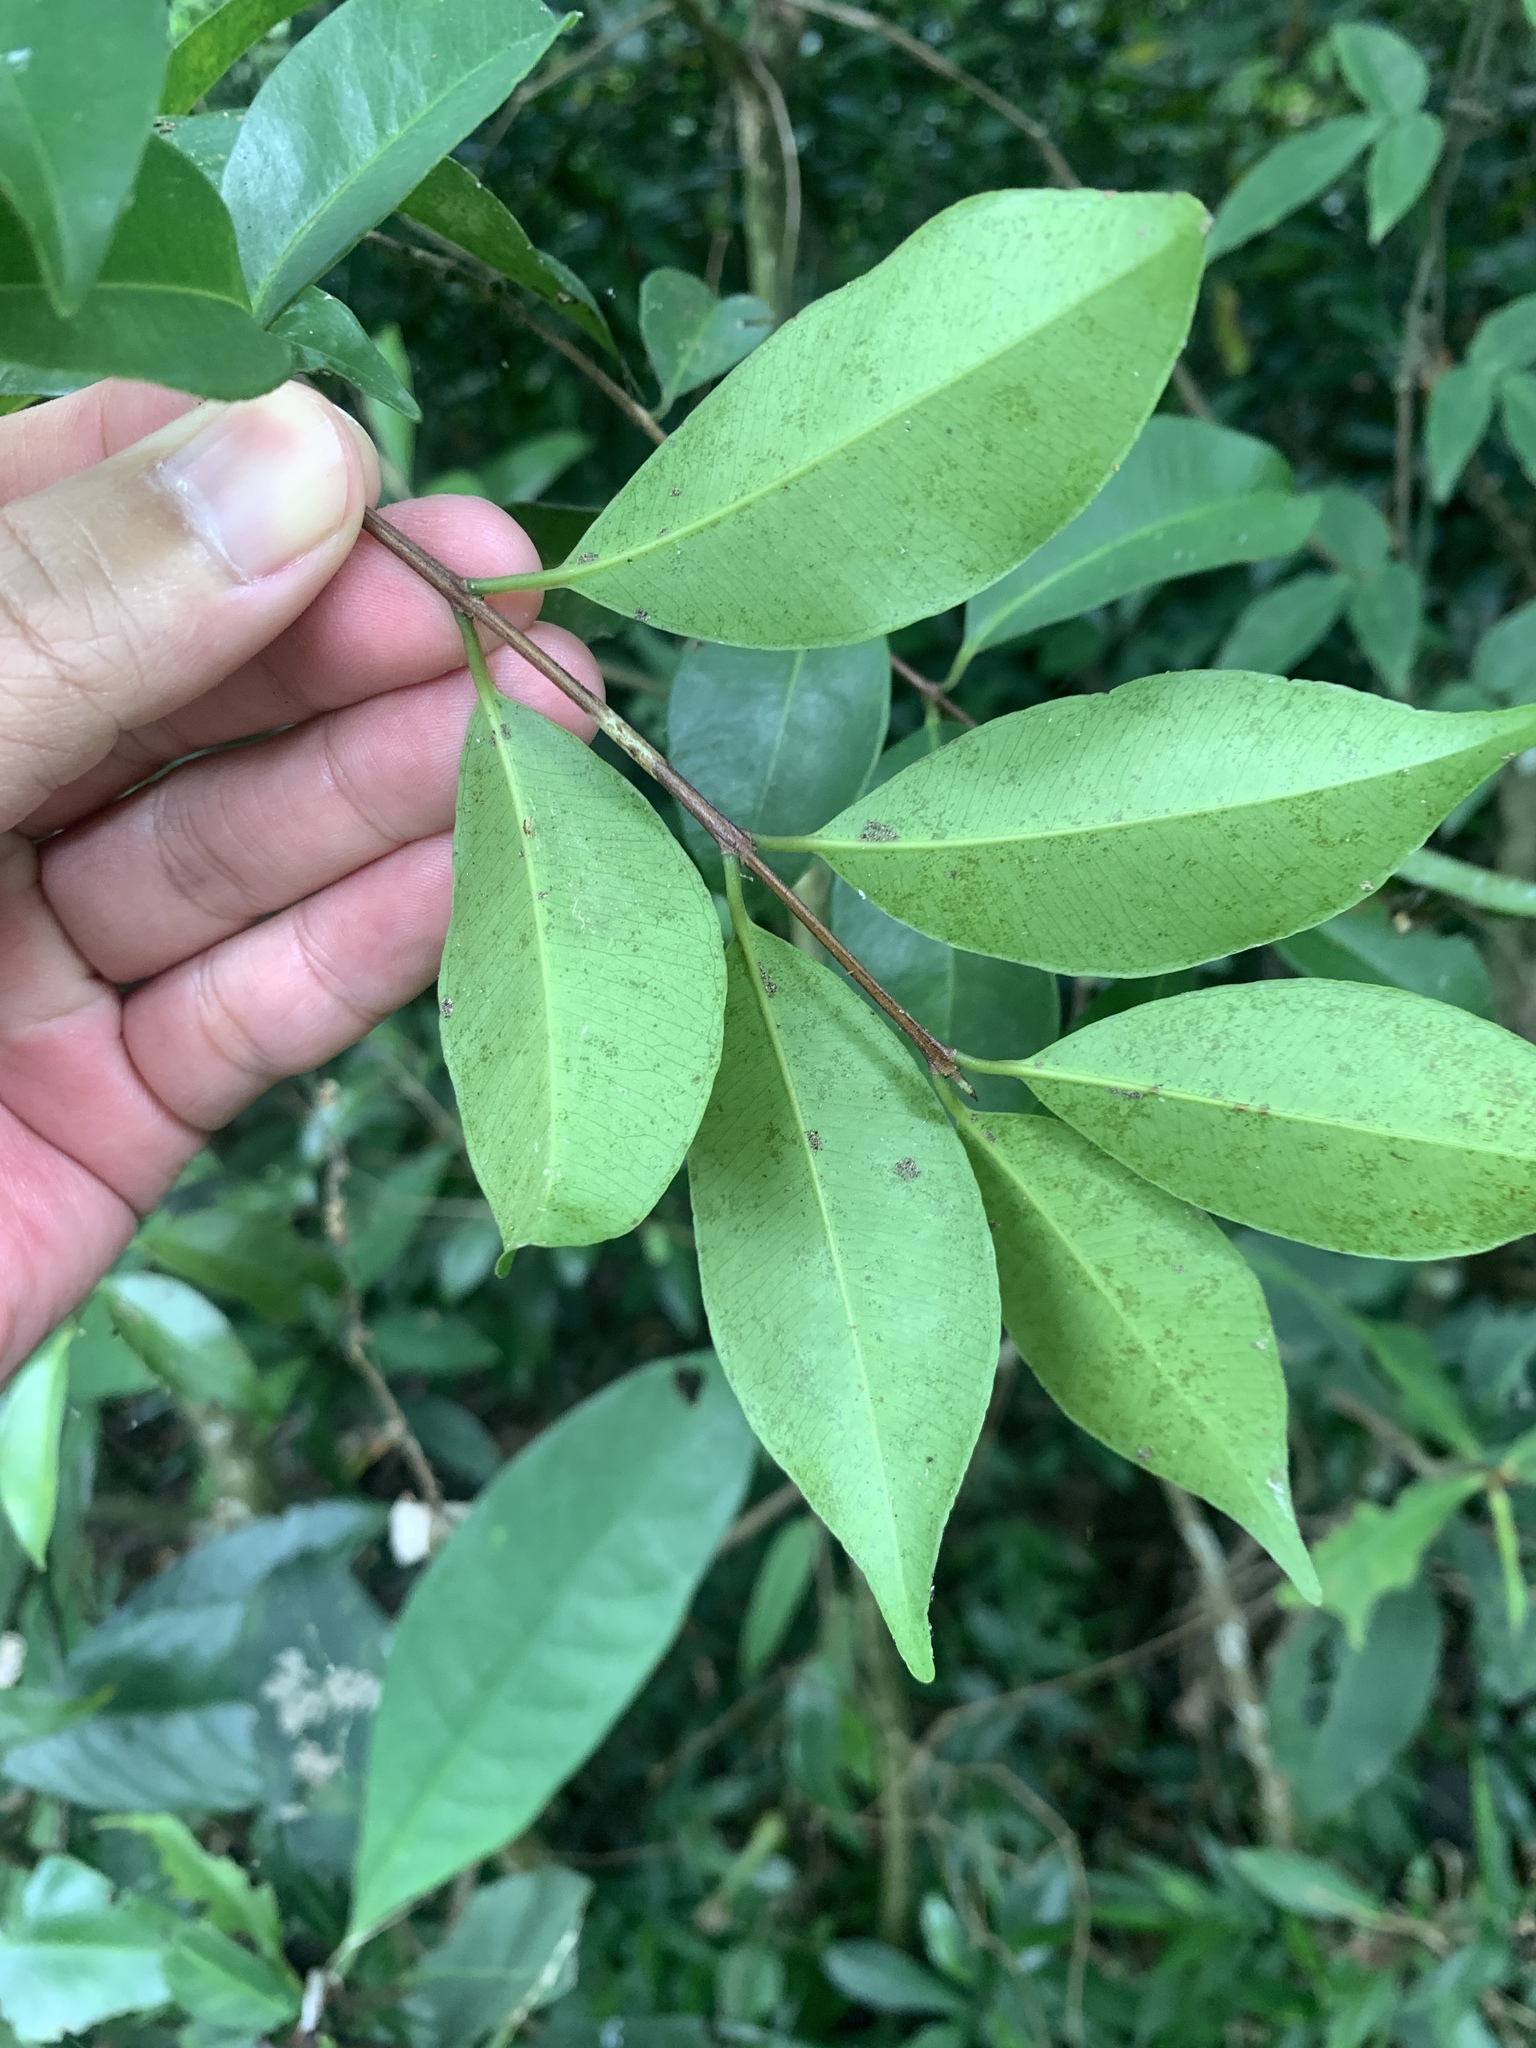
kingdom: Plantae
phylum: Tracheophyta
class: Magnoliopsida
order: Myrtales
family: Myrtaceae
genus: Syzygium
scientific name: Syzygium formosanum
